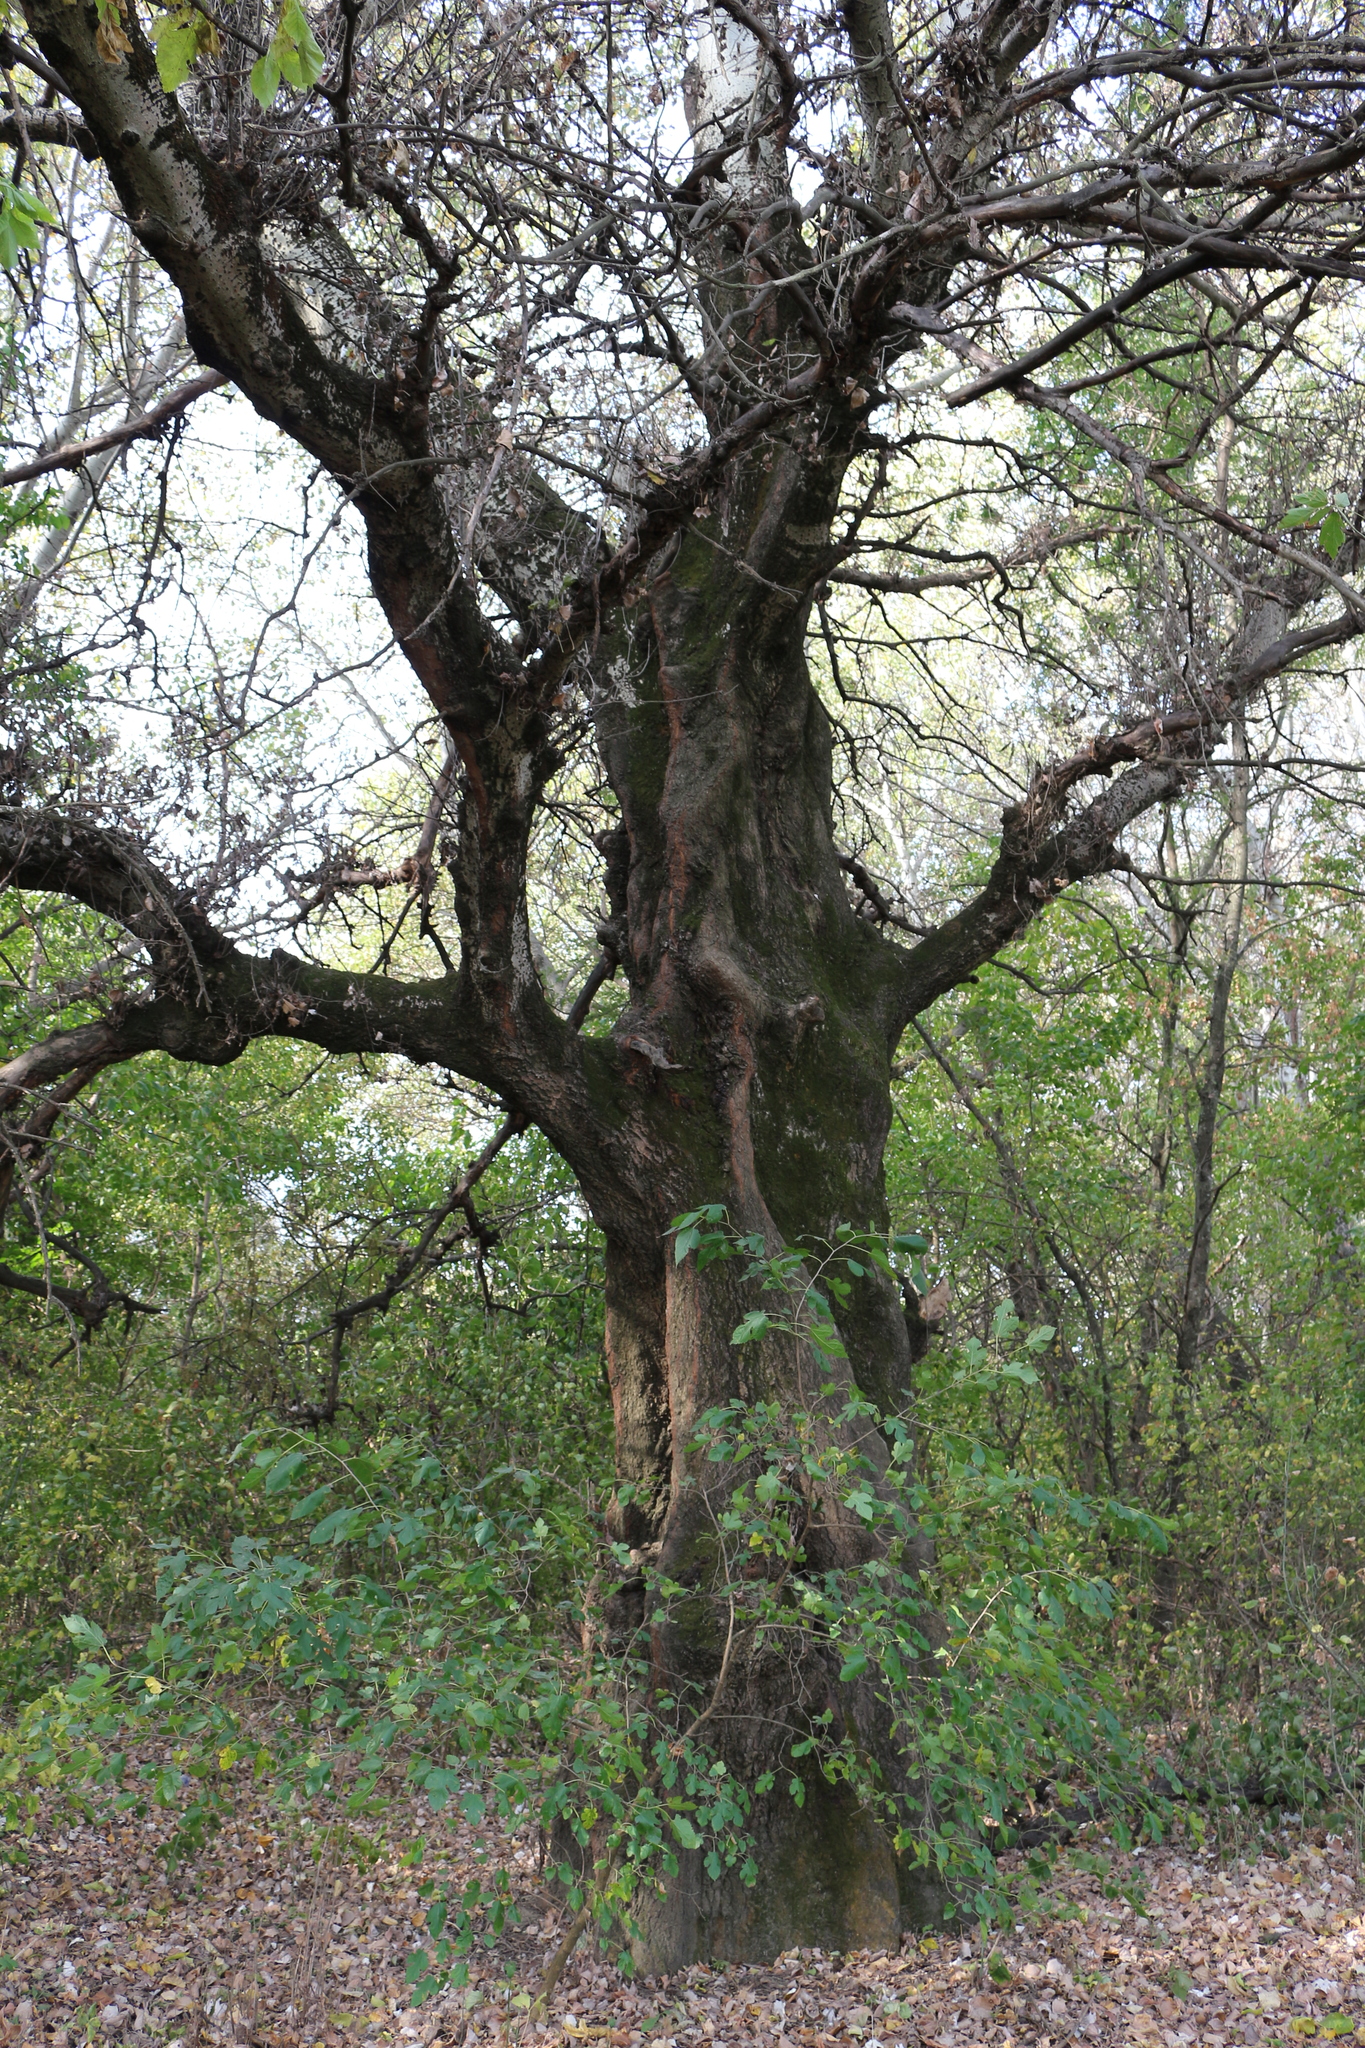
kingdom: Plantae
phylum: Tracheophyta
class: Magnoliopsida
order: Malpighiales
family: Salicaceae
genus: Populus
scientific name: Populus alba
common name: White poplar
